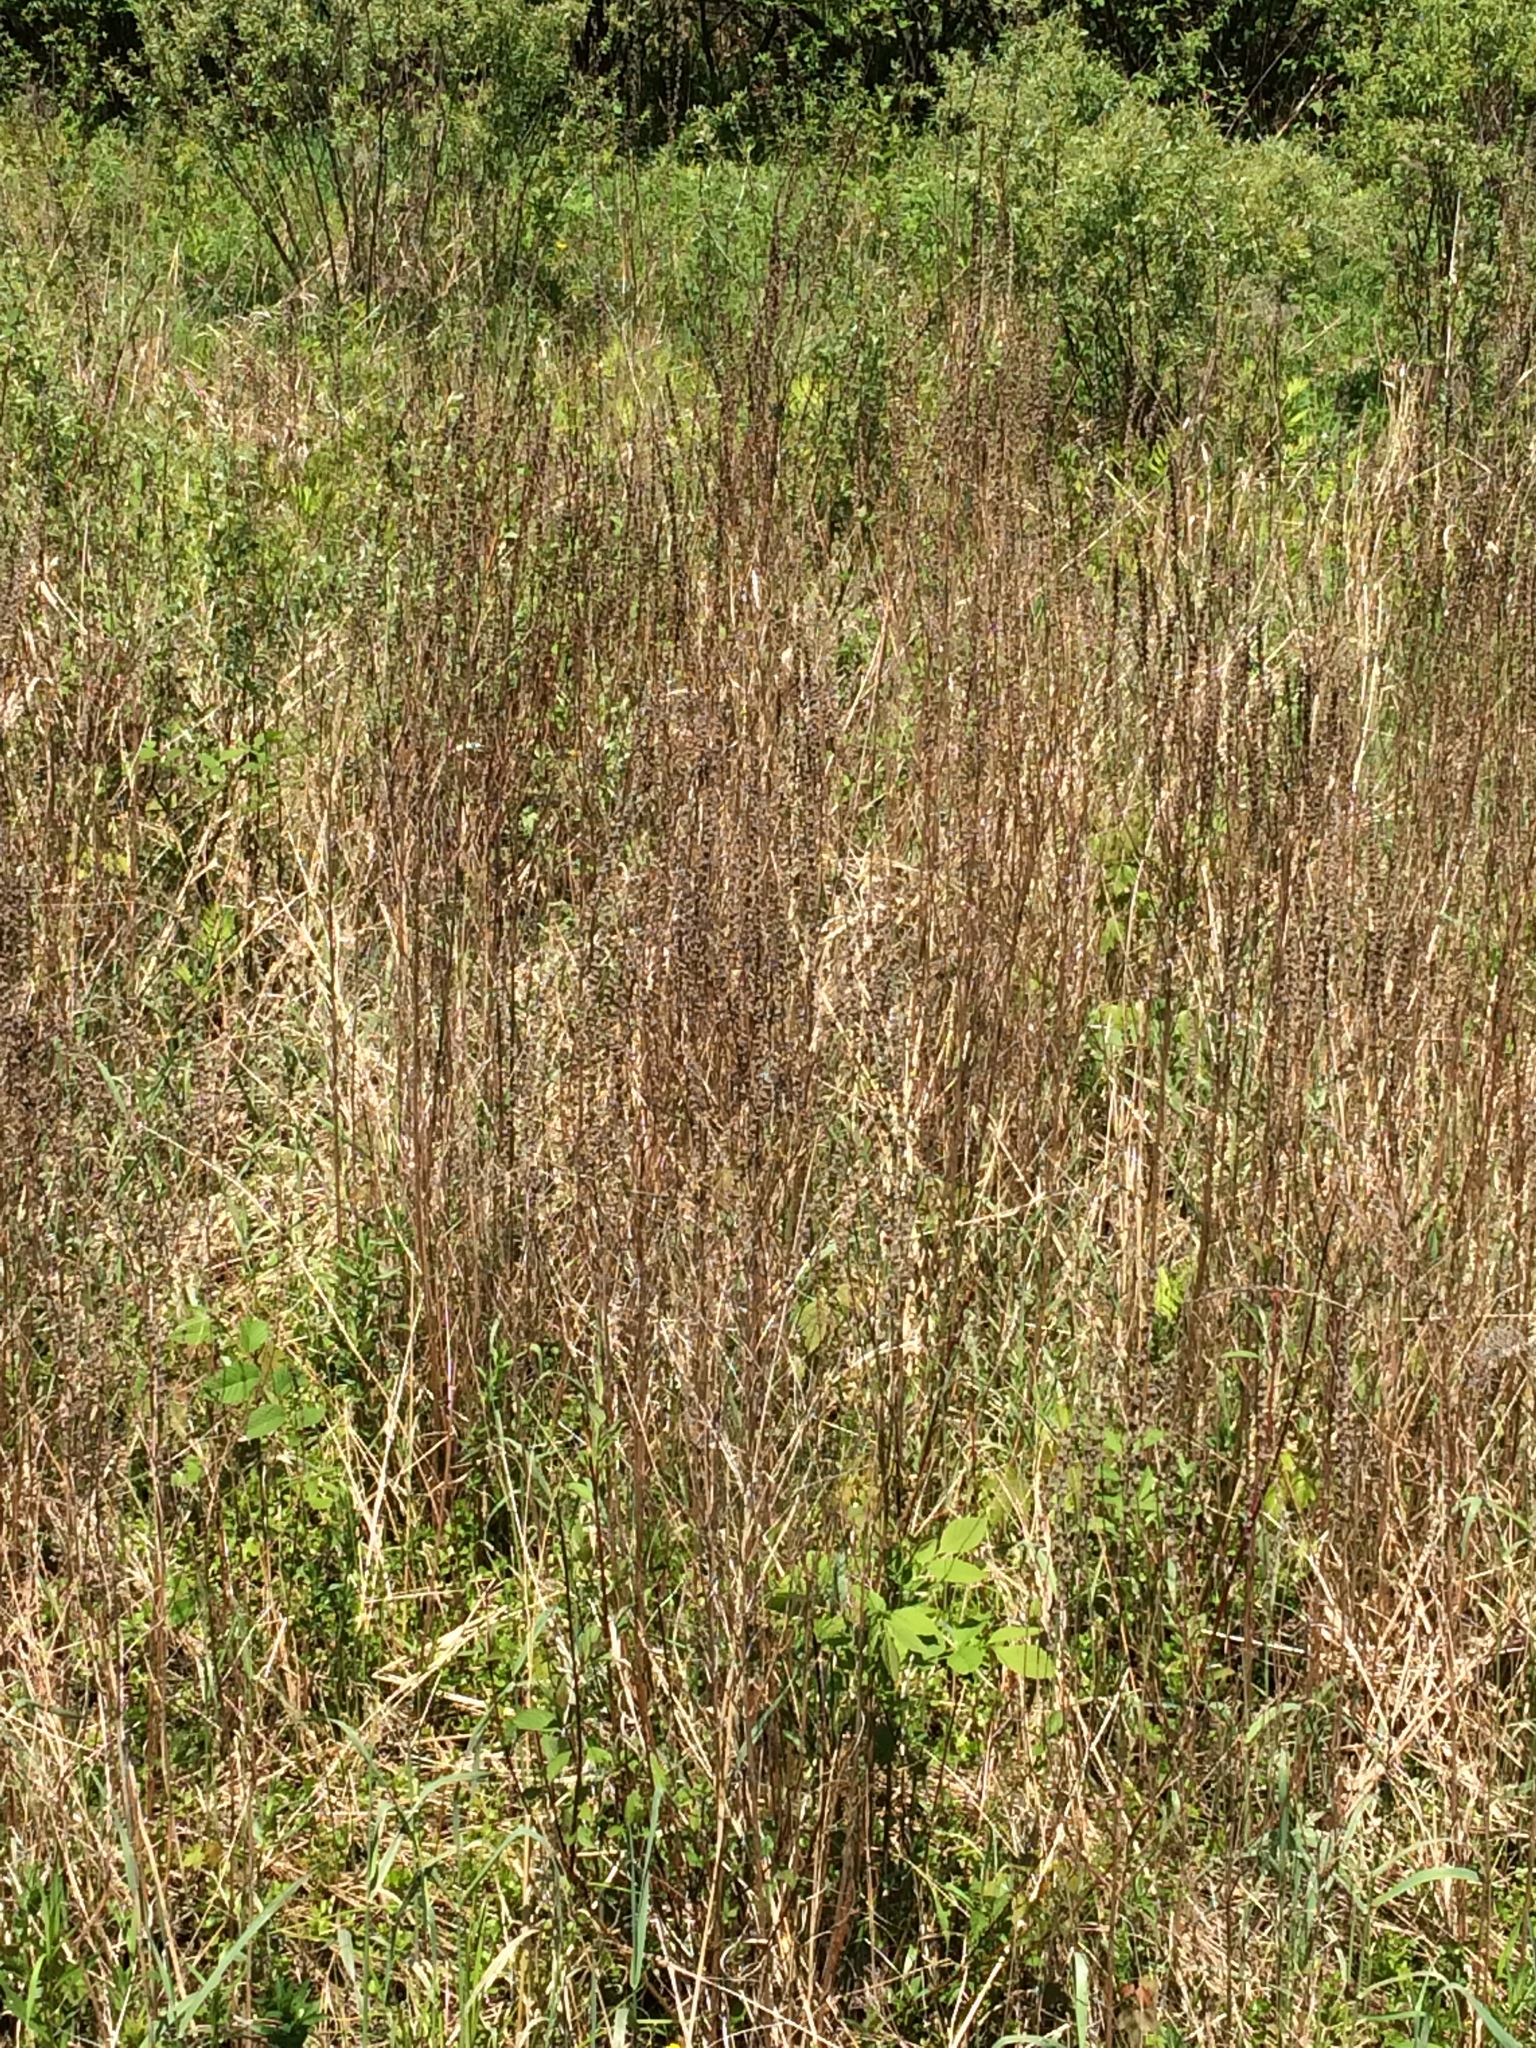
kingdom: Plantae
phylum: Tracheophyta
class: Magnoliopsida
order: Myrtales
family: Lythraceae
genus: Lythrum
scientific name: Lythrum salicaria
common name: Purple loosestrife
